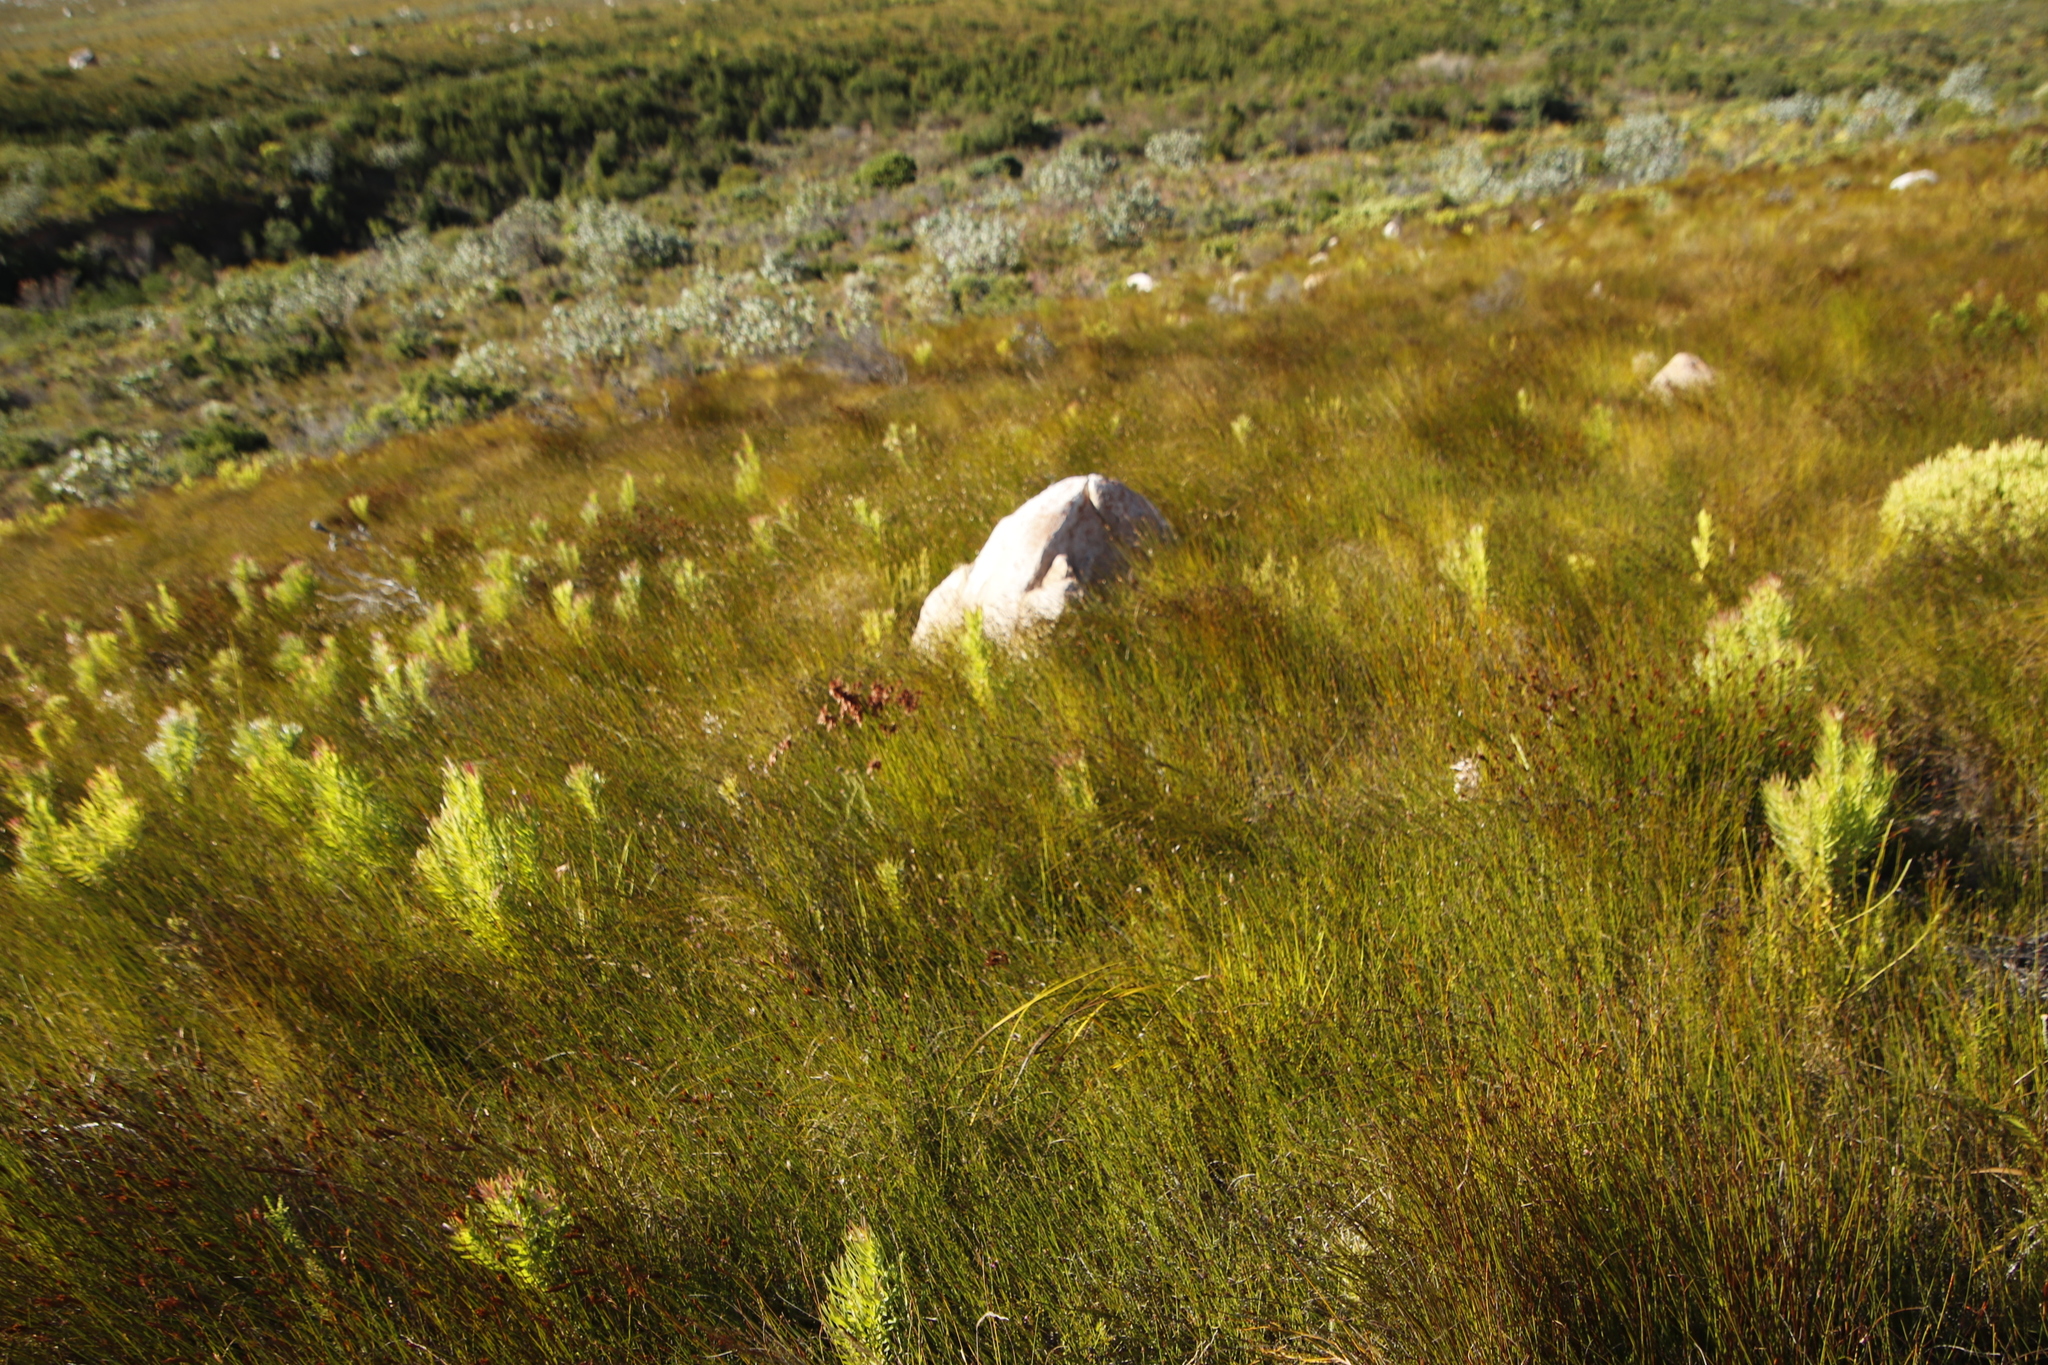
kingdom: Plantae
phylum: Tracheophyta
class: Magnoliopsida
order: Proteales
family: Proteaceae
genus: Leucadendron
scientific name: Leucadendron xanthoconus
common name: Sickle-leaf conebush
